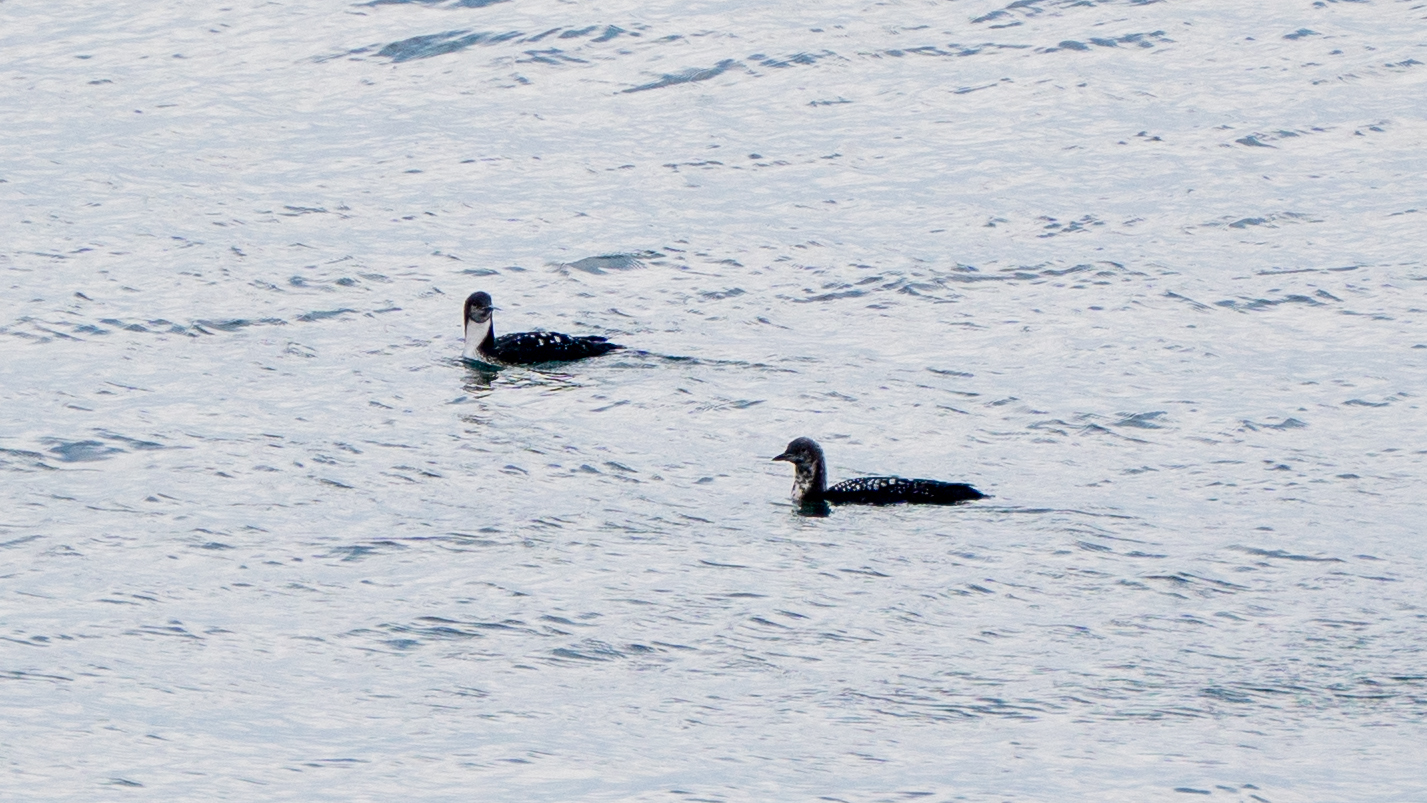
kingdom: Animalia
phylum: Chordata
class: Aves
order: Gaviiformes
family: Gaviidae
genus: Gavia
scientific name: Gavia pacifica
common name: Pacific loon
